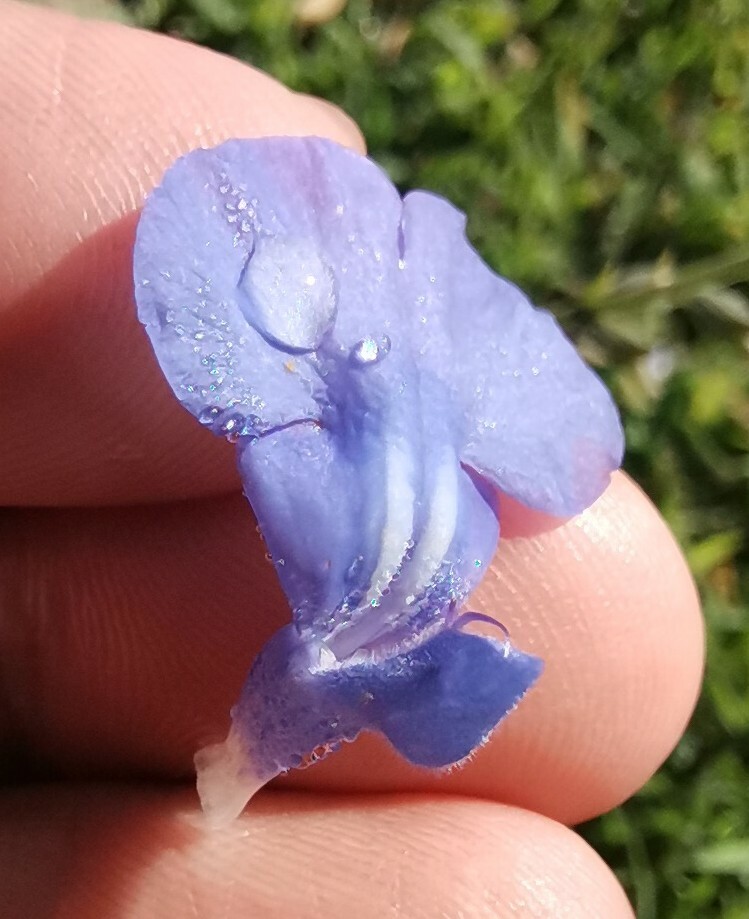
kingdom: Plantae
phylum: Tracheophyta
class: Magnoliopsida
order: Lamiales
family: Lamiaceae
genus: Salvia
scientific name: Salvia reptans
